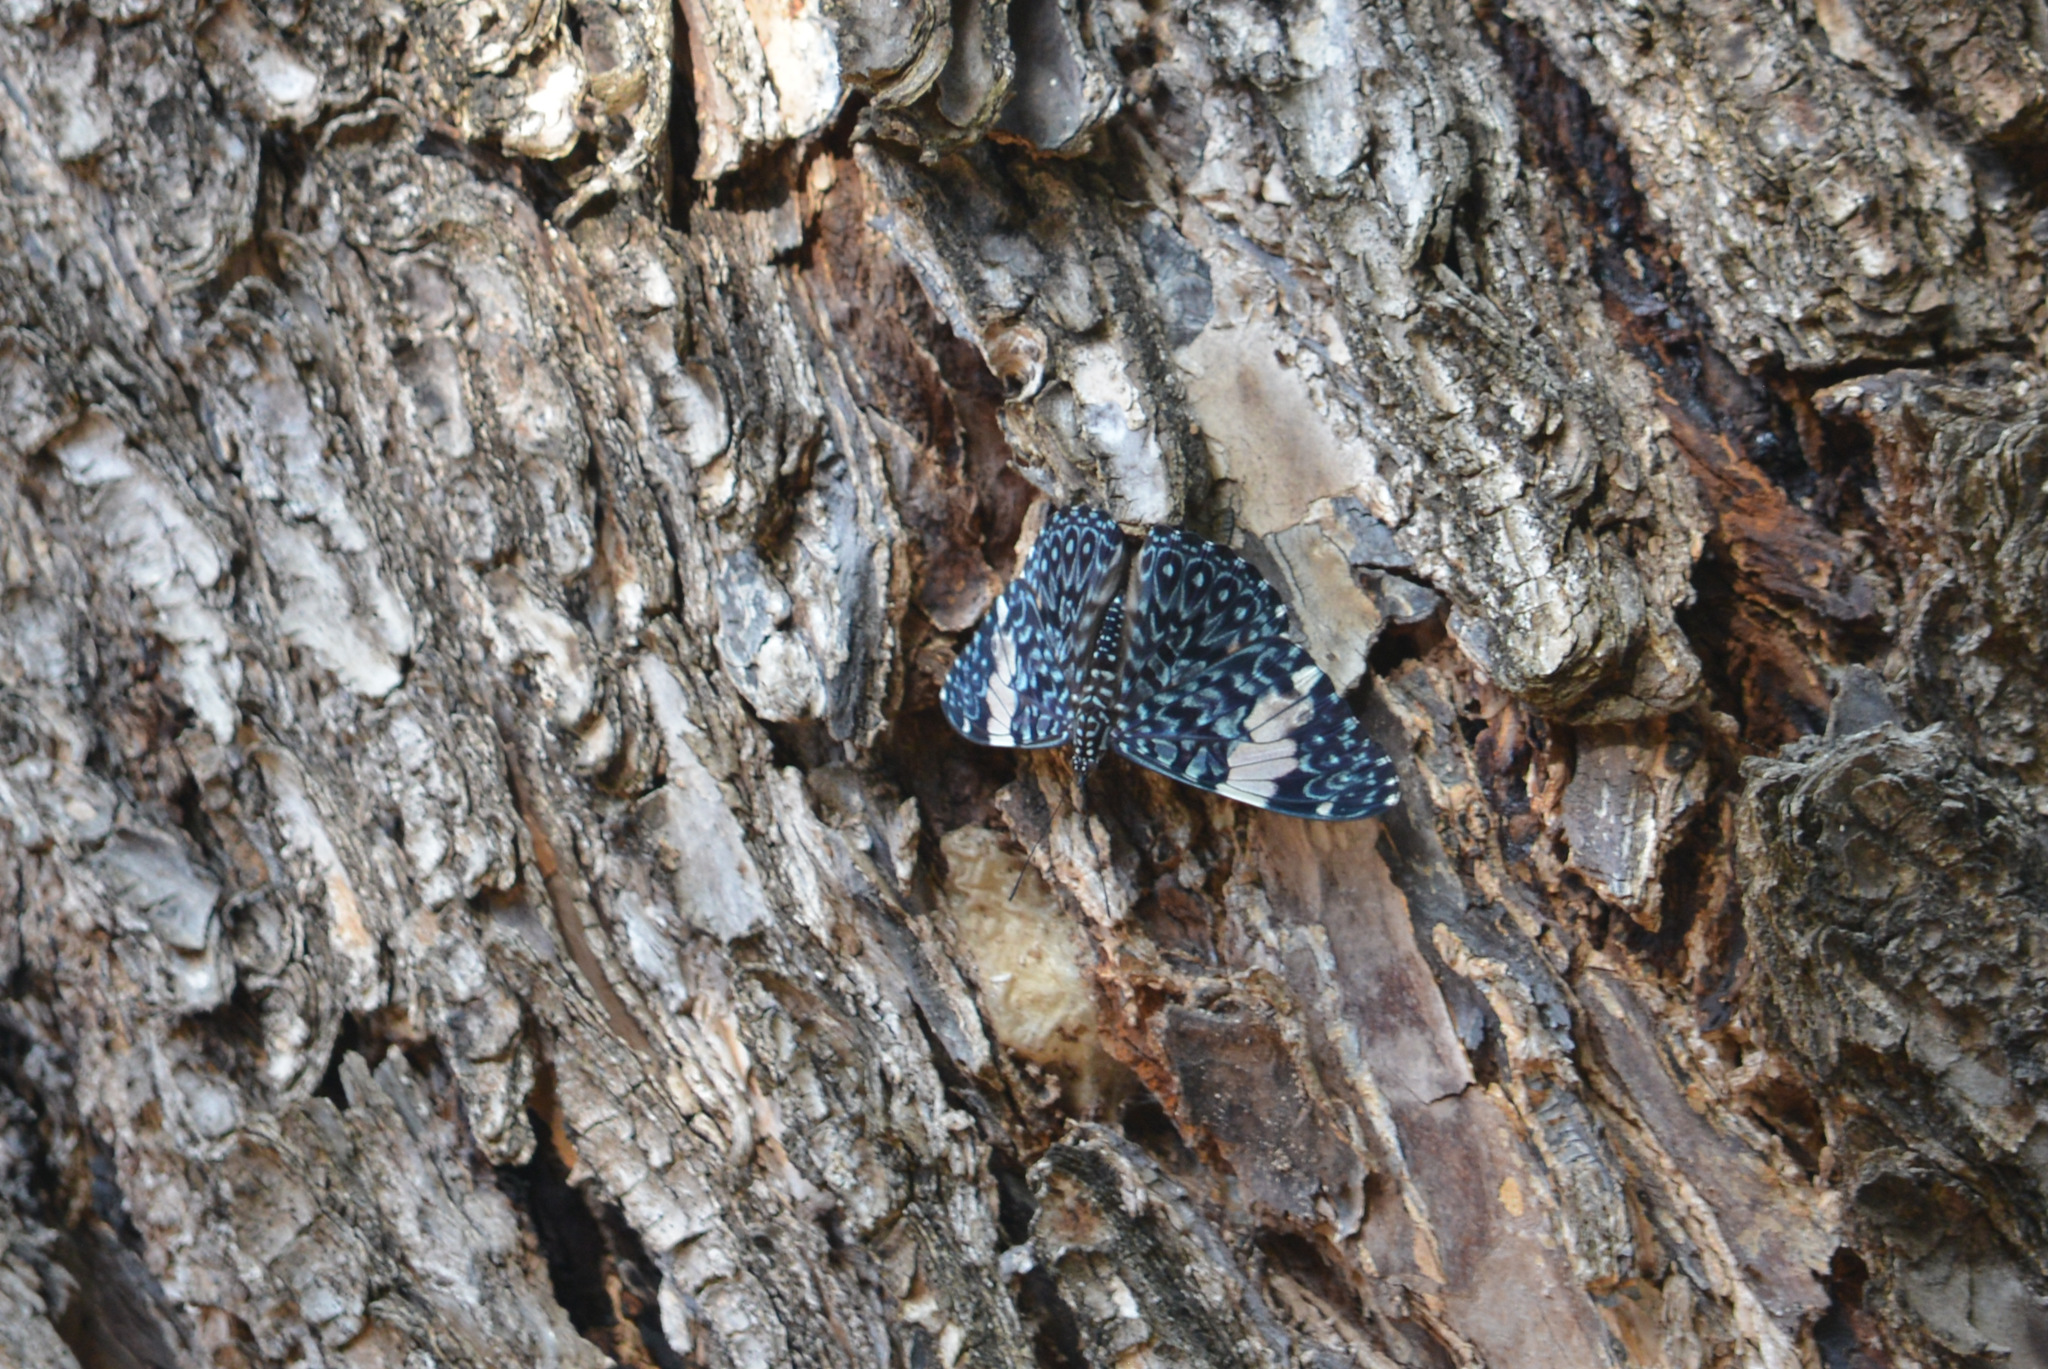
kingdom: Animalia
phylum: Arthropoda
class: Insecta
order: Lepidoptera
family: Nymphalidae
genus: Hamadryas
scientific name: Hamadryas amphinome
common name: Red cracker
